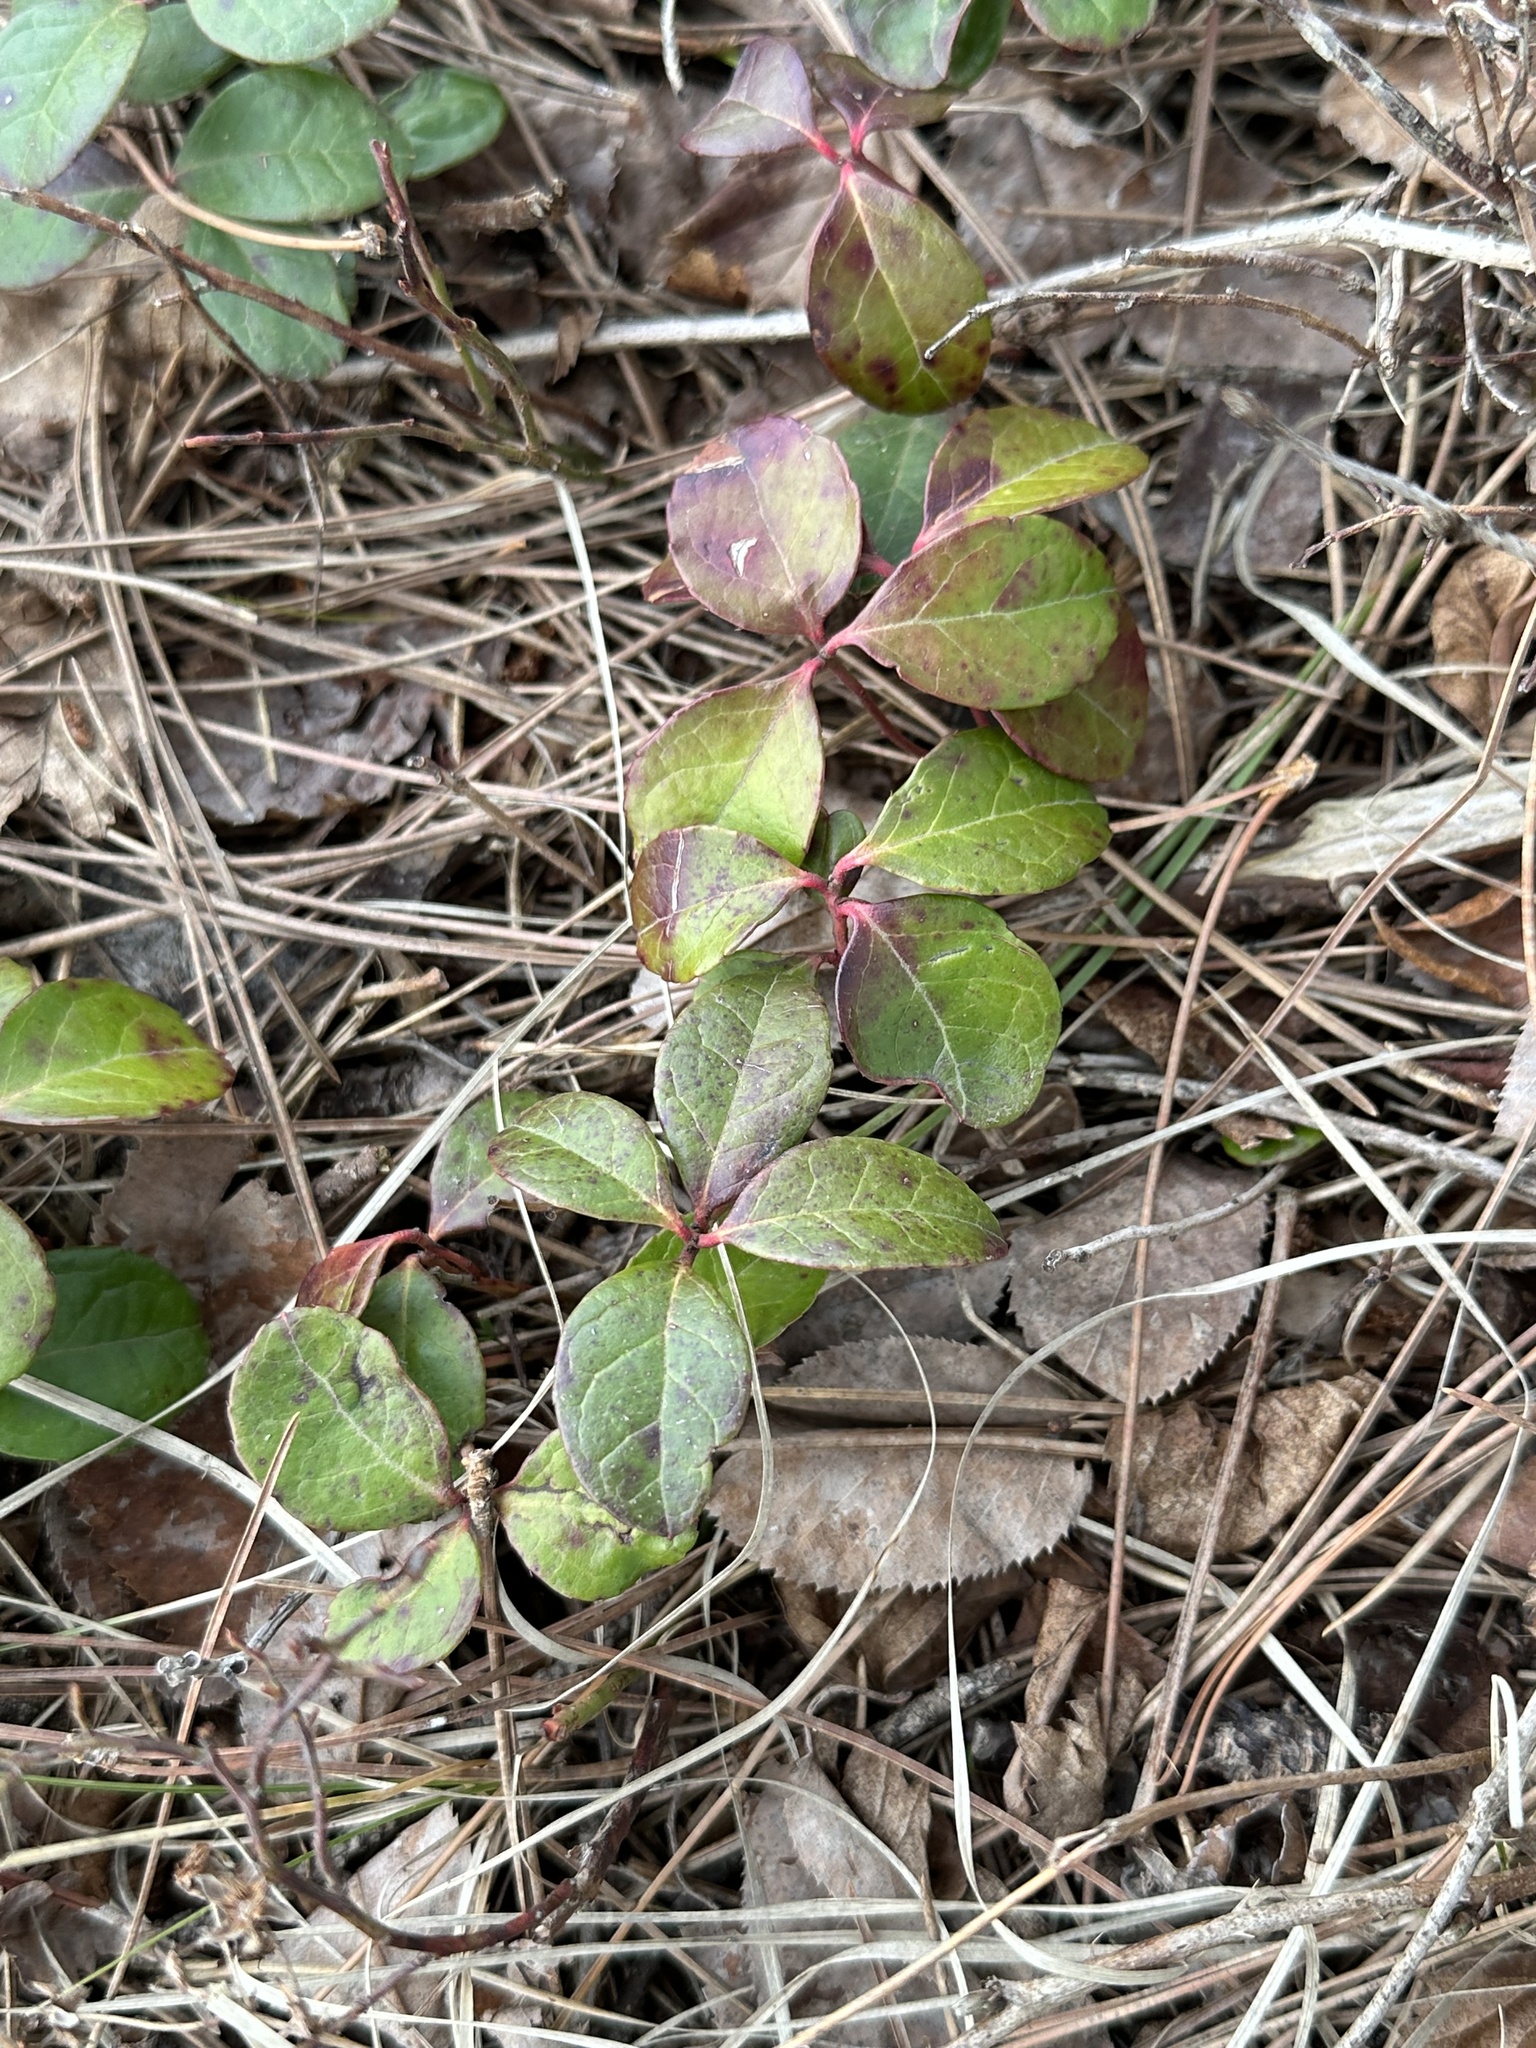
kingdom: Plantae
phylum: Tracheophyta
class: Magnoliopsida
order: Ericales
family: Ericaceae
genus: Gaultheria
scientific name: Gaultheria procumbens
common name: Checkerberry
